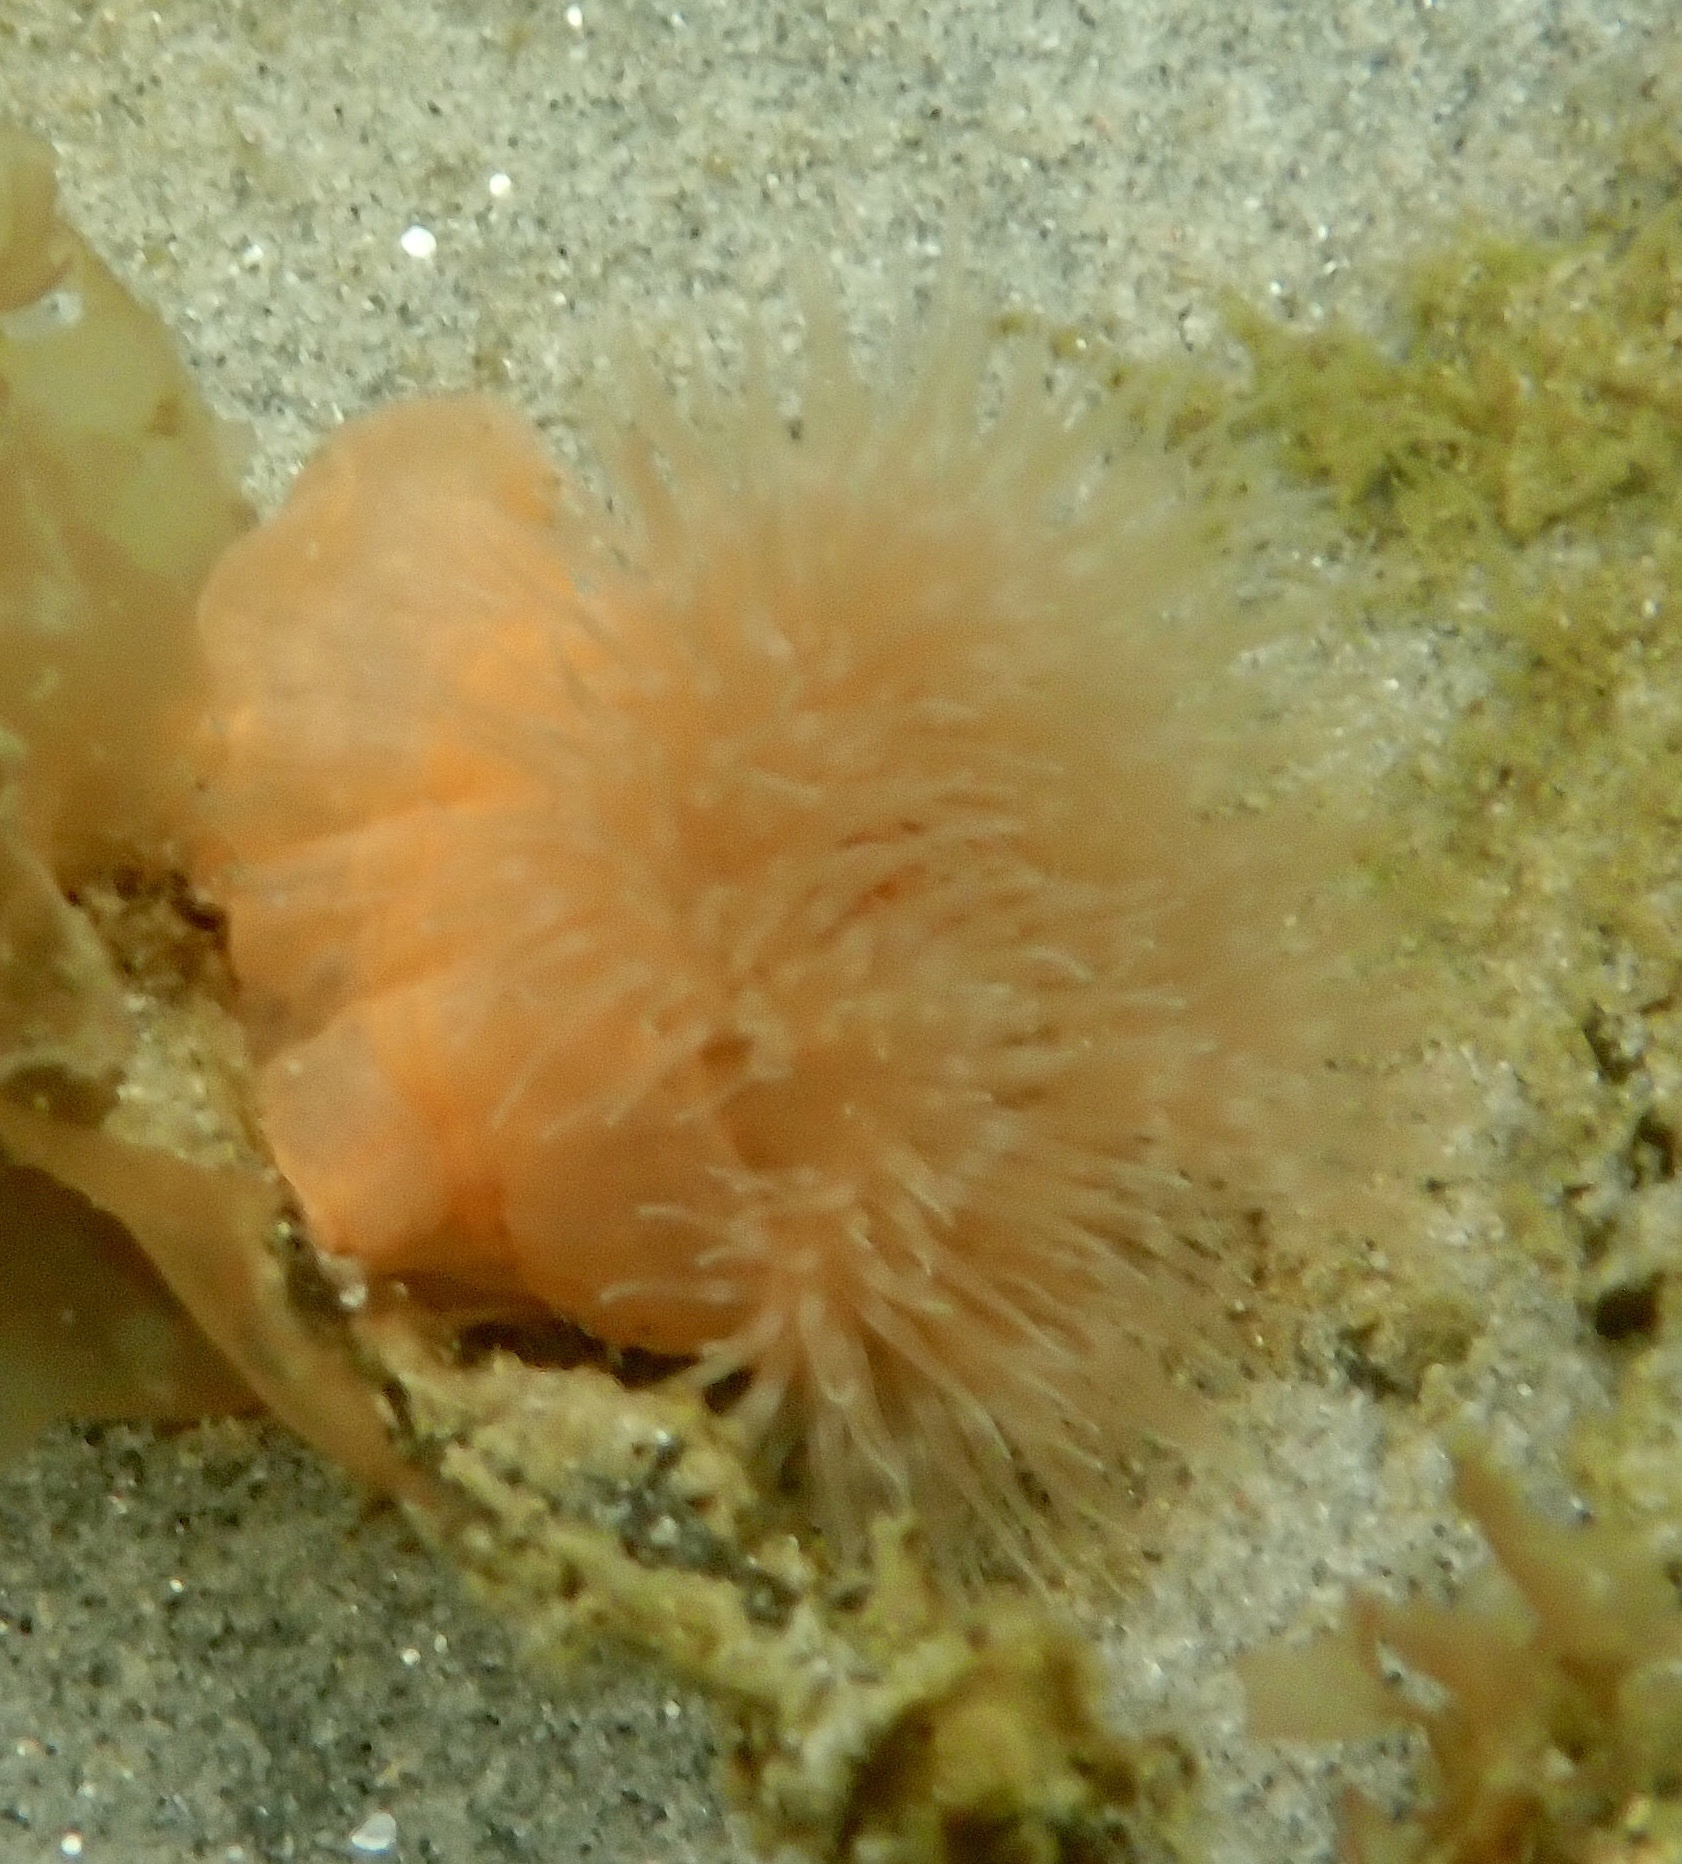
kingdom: Animalia
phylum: Cnidaria
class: Anthozoa
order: Actiniaria
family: Metridiidae
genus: Metridium
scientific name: Metridium senile
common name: Clonal plumose anemone
